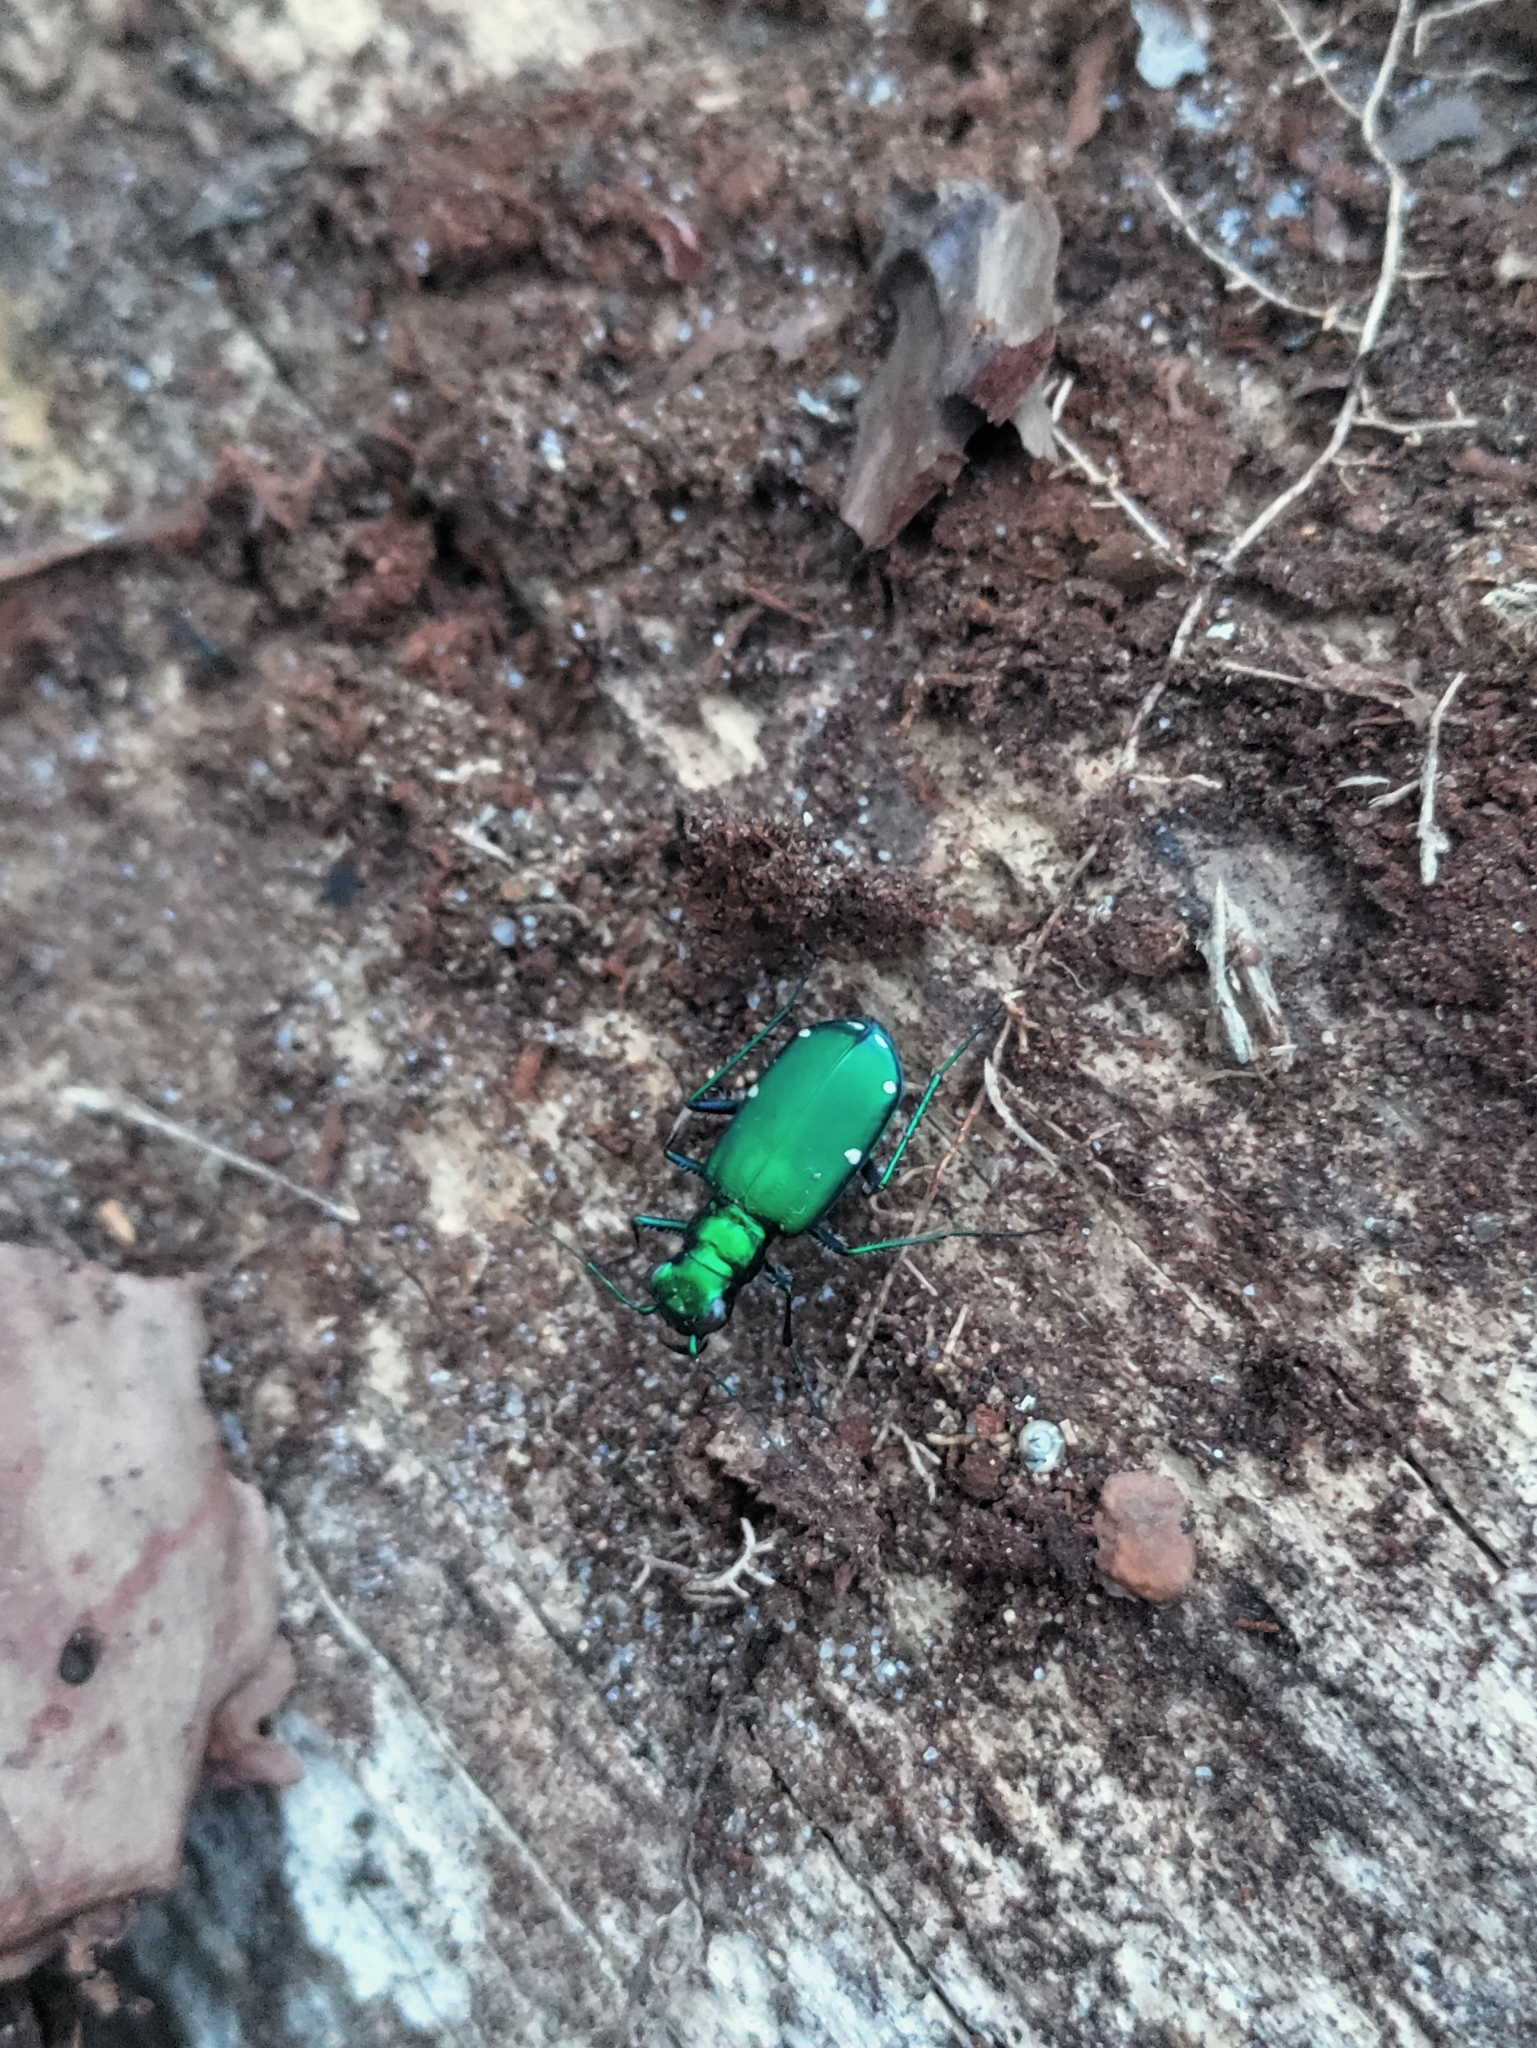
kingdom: Animalia
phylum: Arthropoda
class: Insecta
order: Coleoptera
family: Carabidae
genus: Cicindela
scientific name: Cicindela sexguttata
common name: Six-spotted tiger beetle
